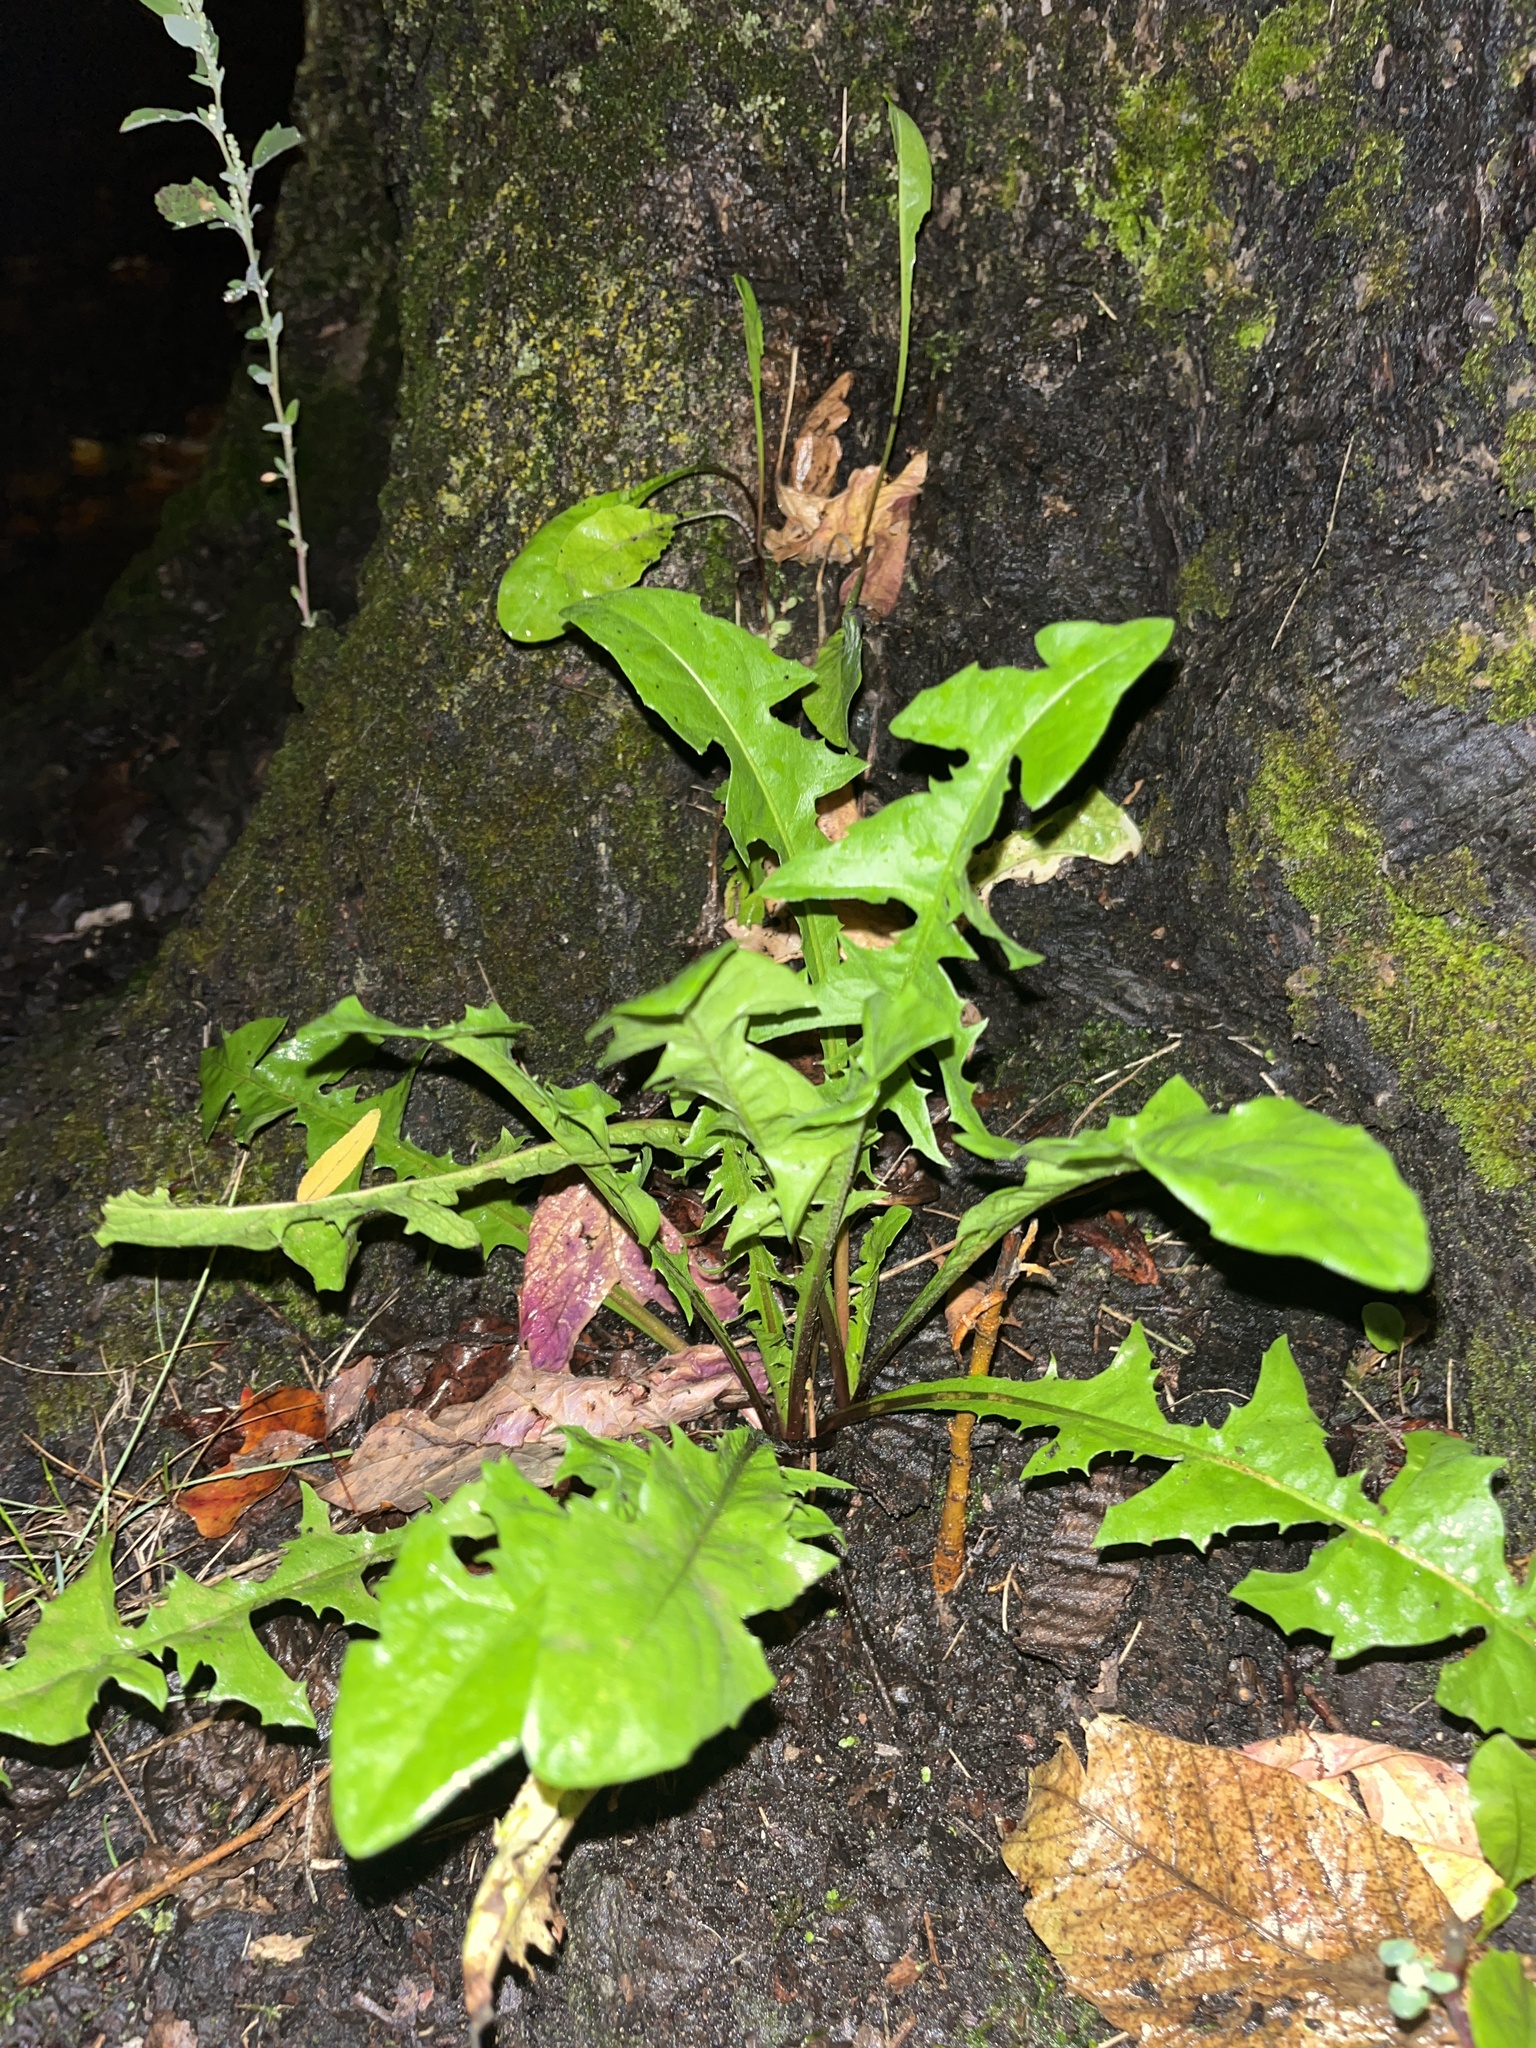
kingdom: Plantae
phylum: Tracheophyta
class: Magnoliopsida
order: Asterales
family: Asteraceae
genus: Taraxacum
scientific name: Taraxacum officinale
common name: Common dandelion
